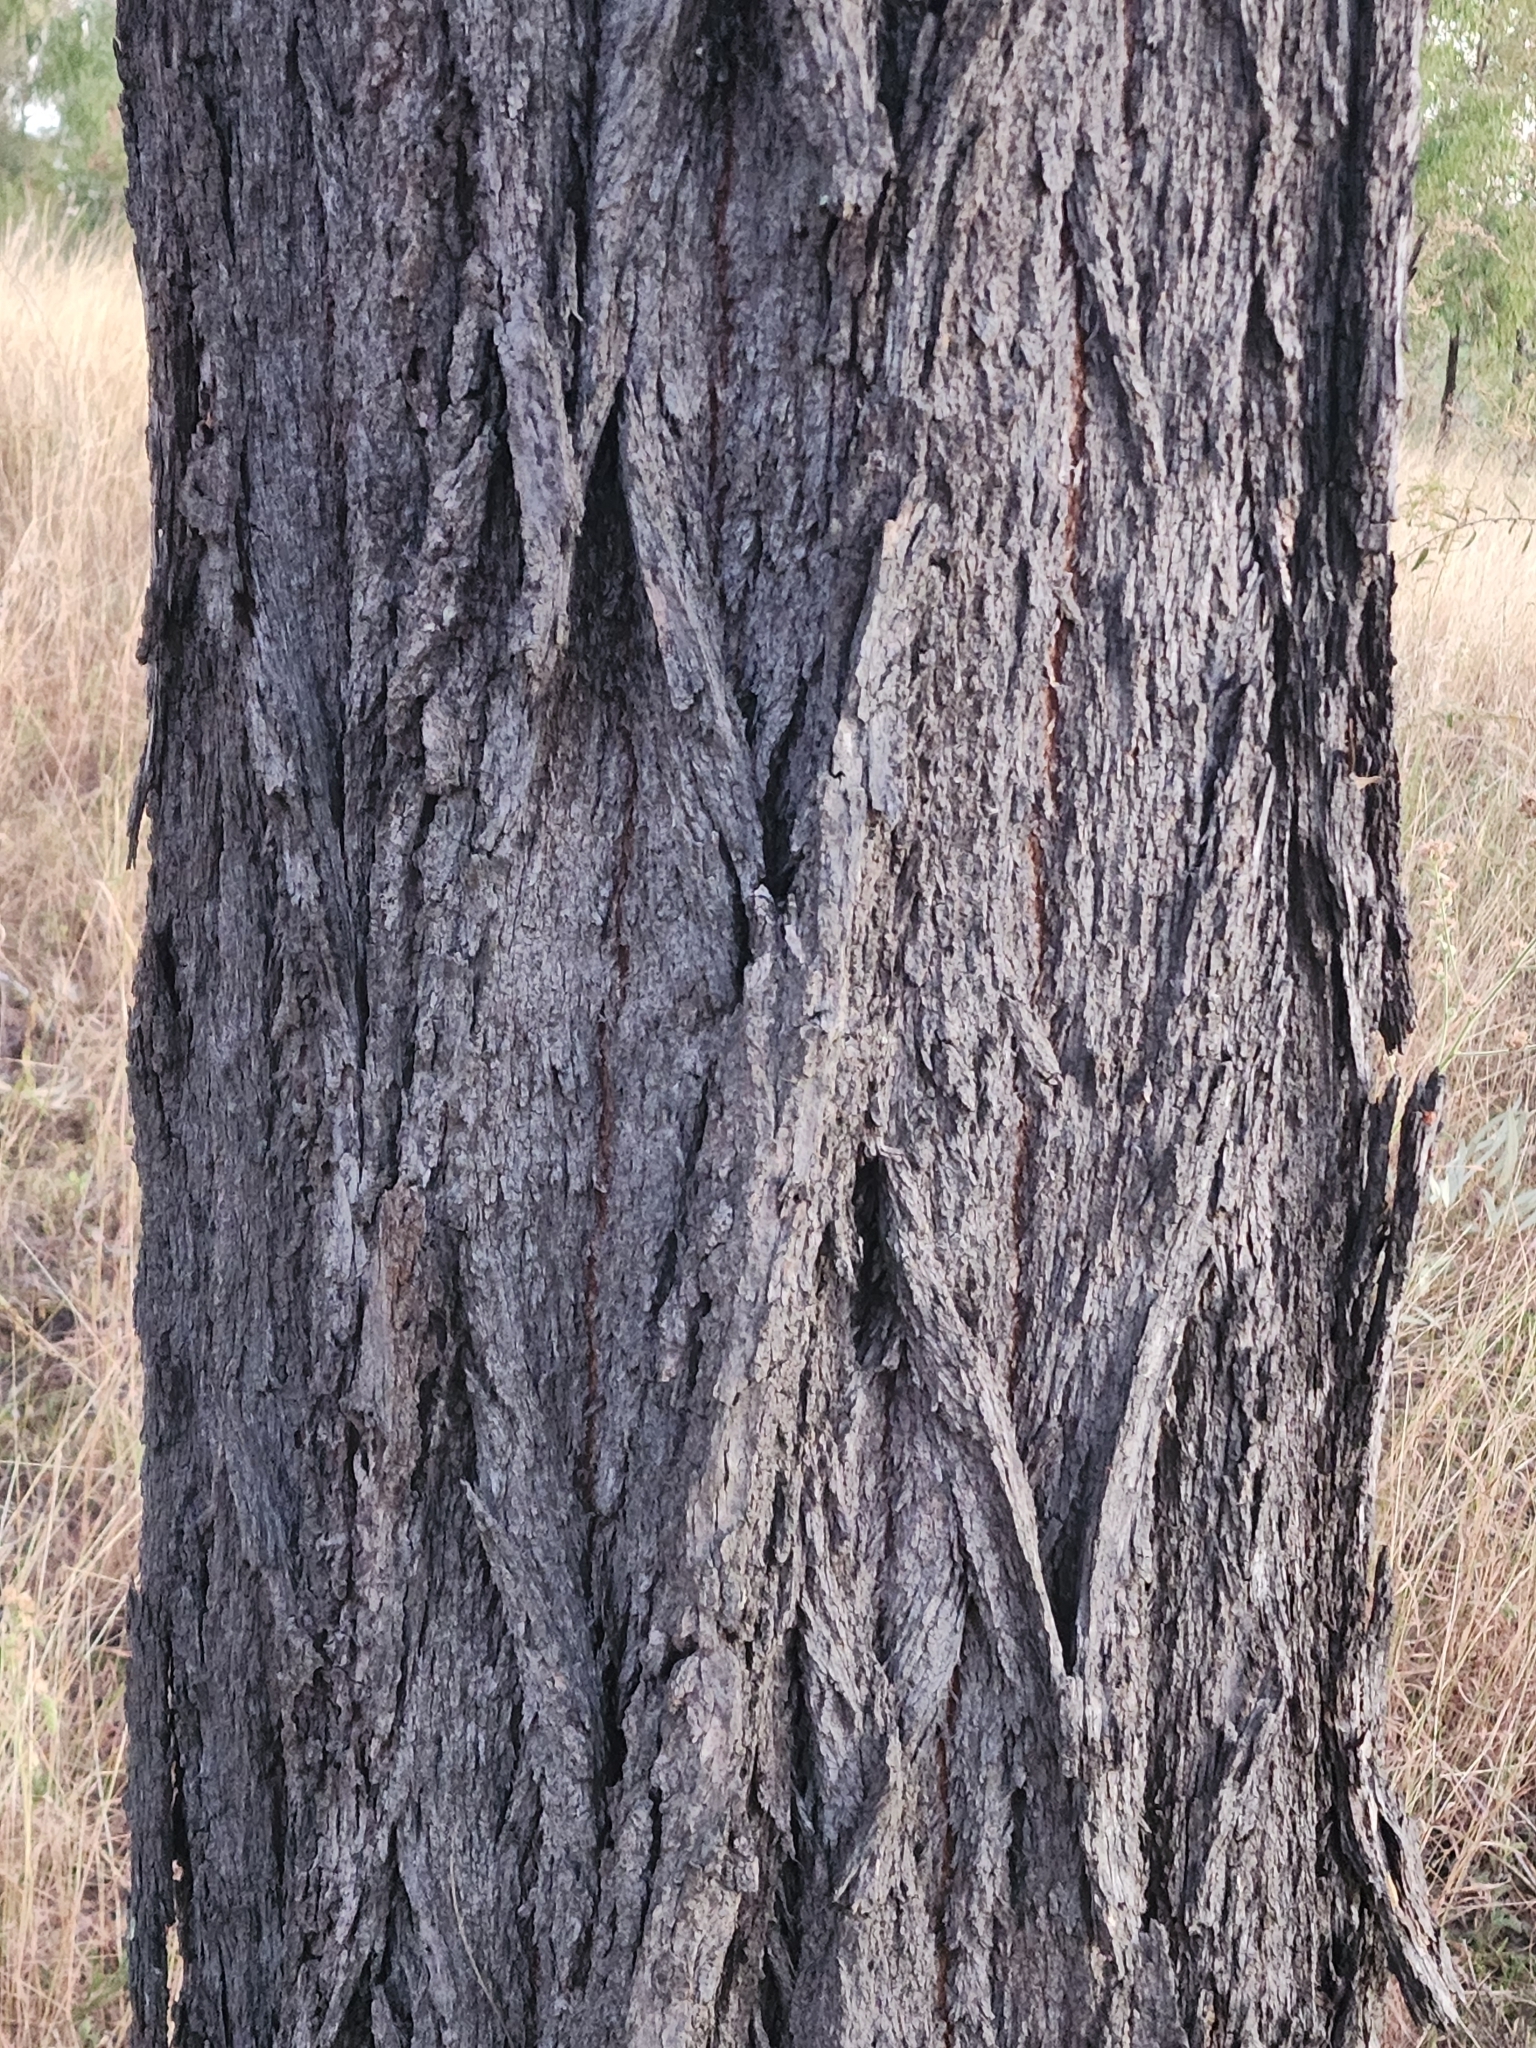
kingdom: Plantae
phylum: Tracheophyta
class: Magnoliopsida
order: Myrtales
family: Myrtaceae
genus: Eucalyptus
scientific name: Eucalyptus crebra
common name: Narrowleaf red ironbark
